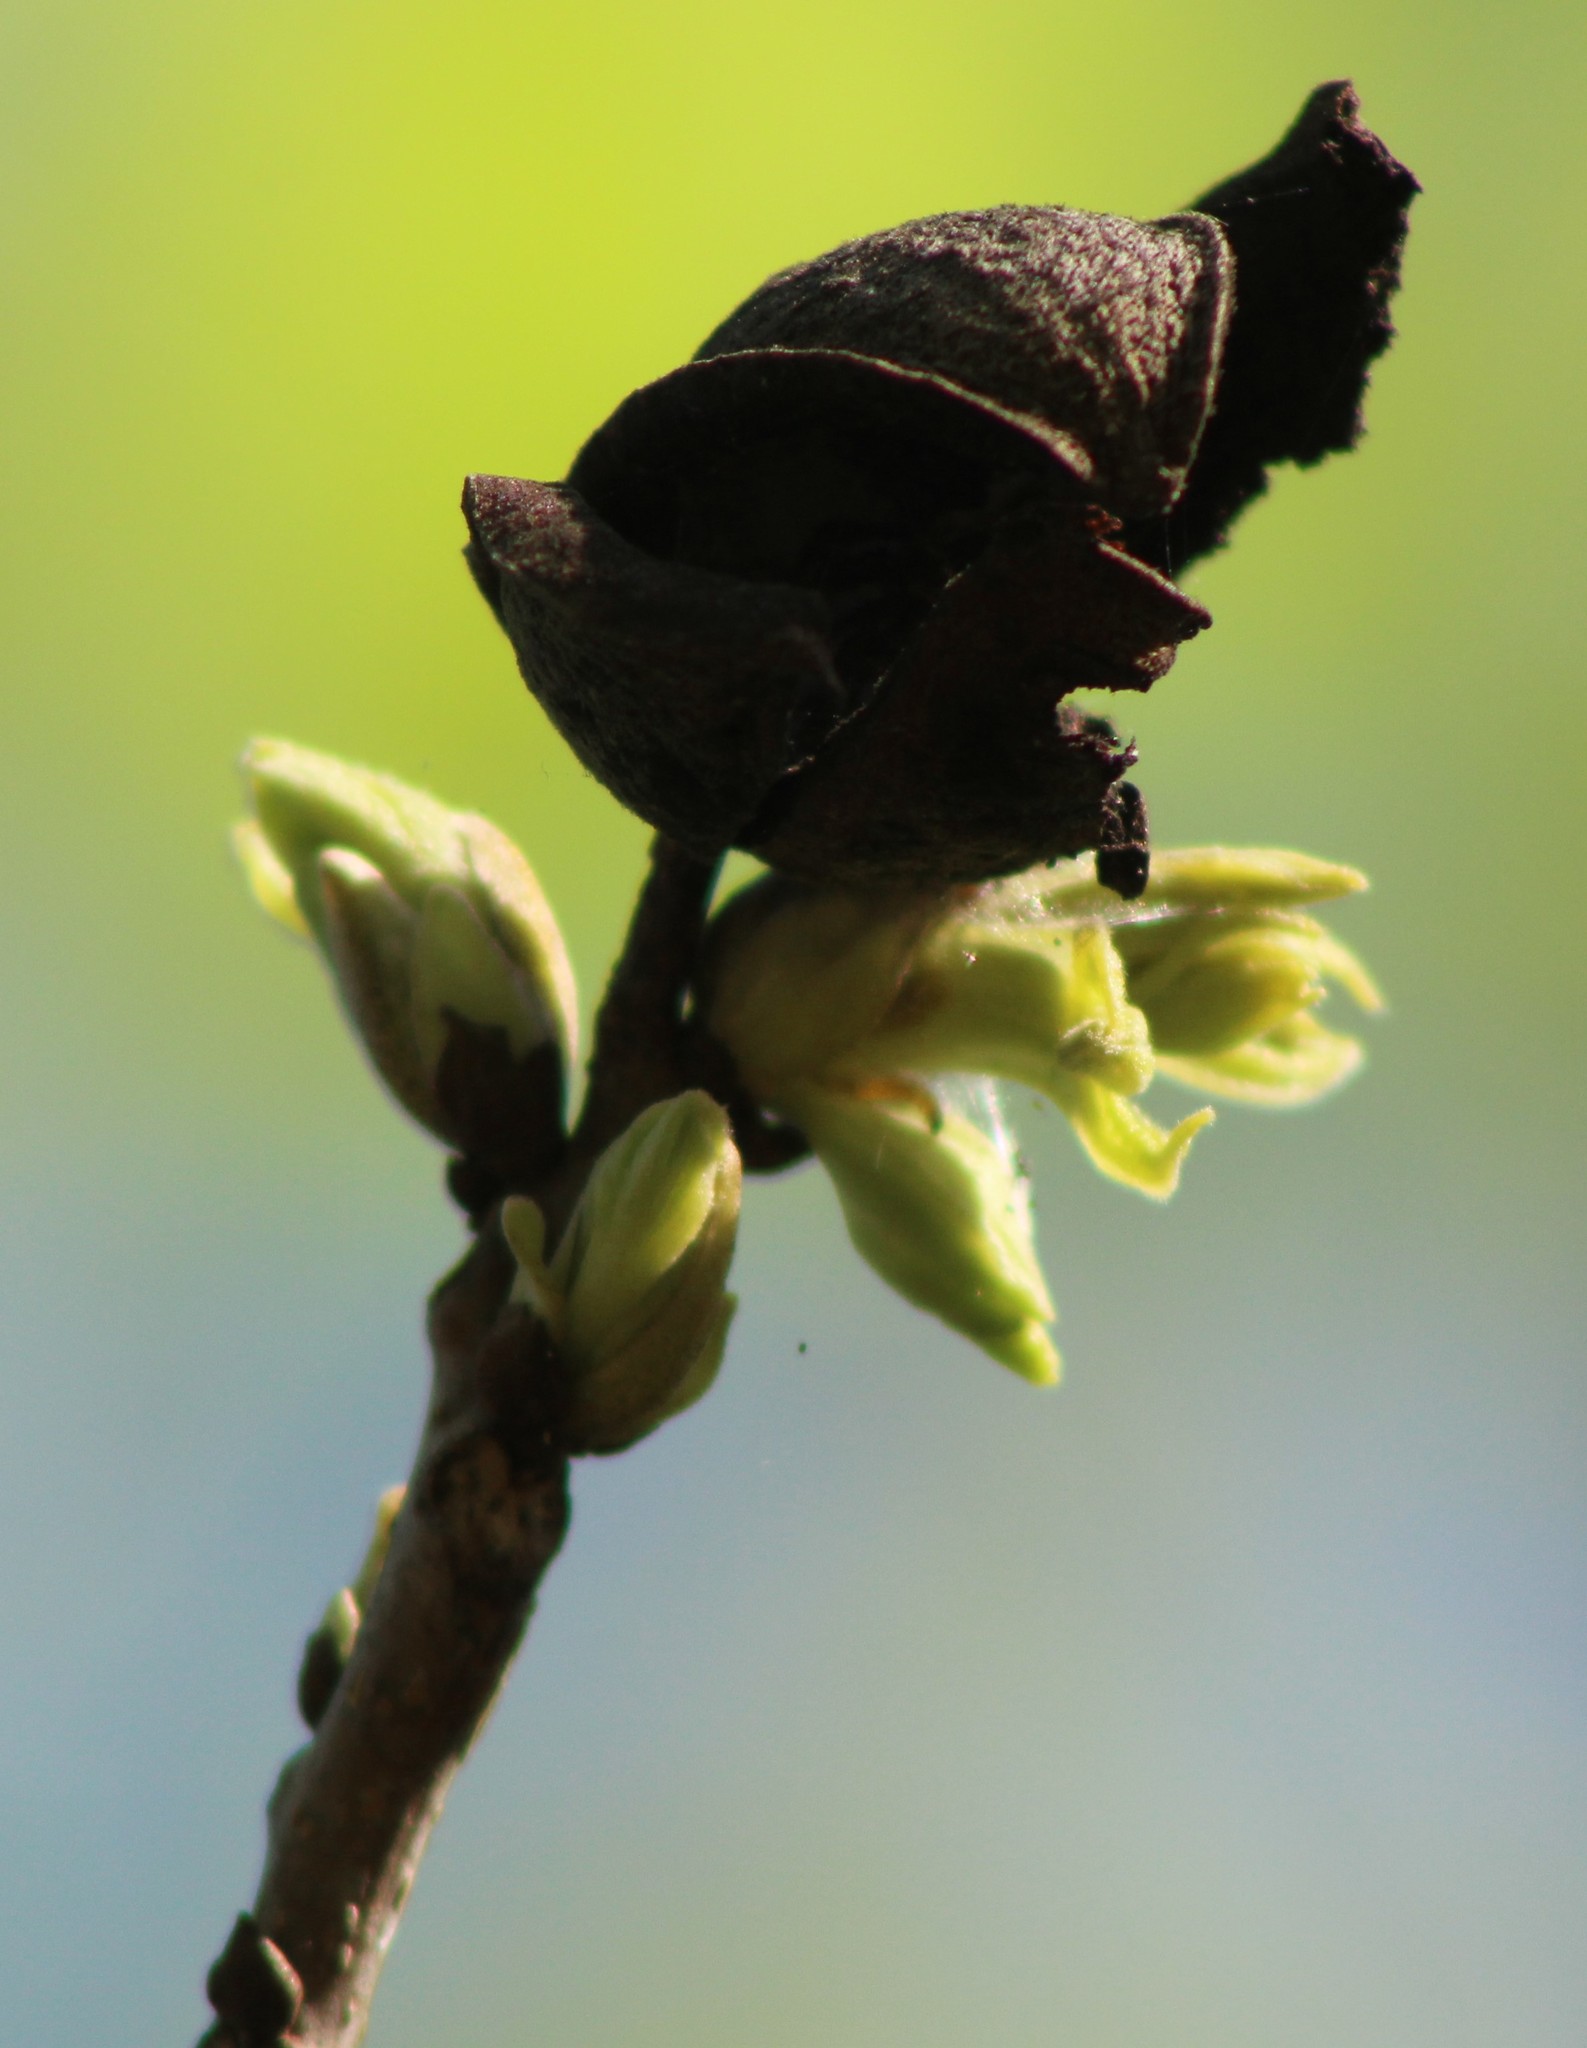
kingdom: Plantae
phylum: Tracheophyta
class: Magnoliopsida
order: Fagales
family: Juglandaceae
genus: Carya
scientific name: Carya illinoinensis
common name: Pecan
